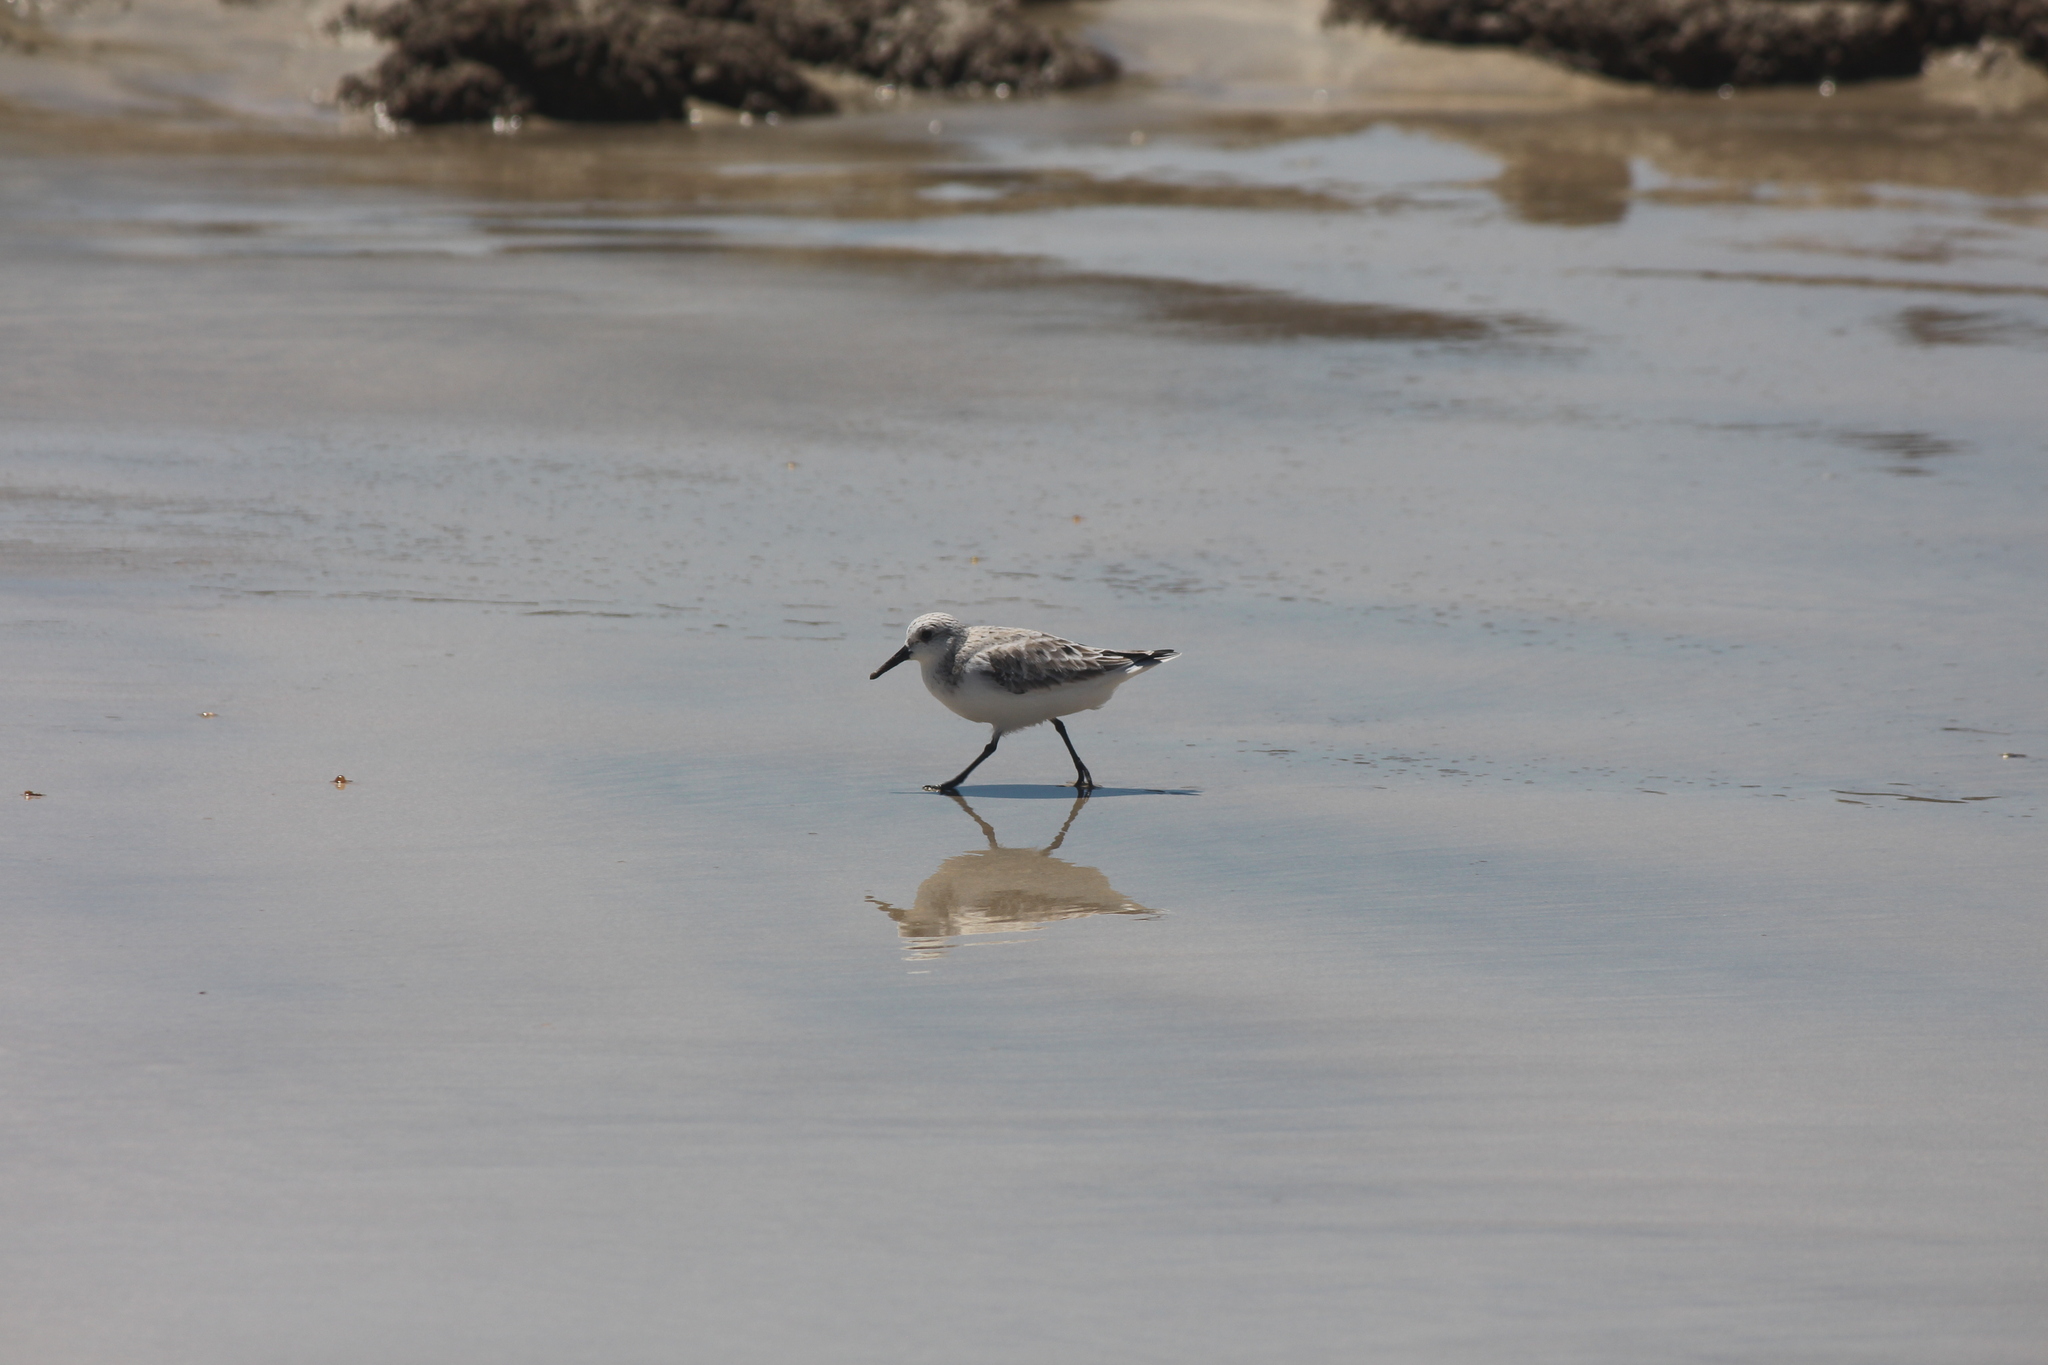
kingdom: Animalia
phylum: Chordata
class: Aves
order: Charadriiformes
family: Scolopacidae
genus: Calidris
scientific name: Calidris alba
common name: Sanderling
